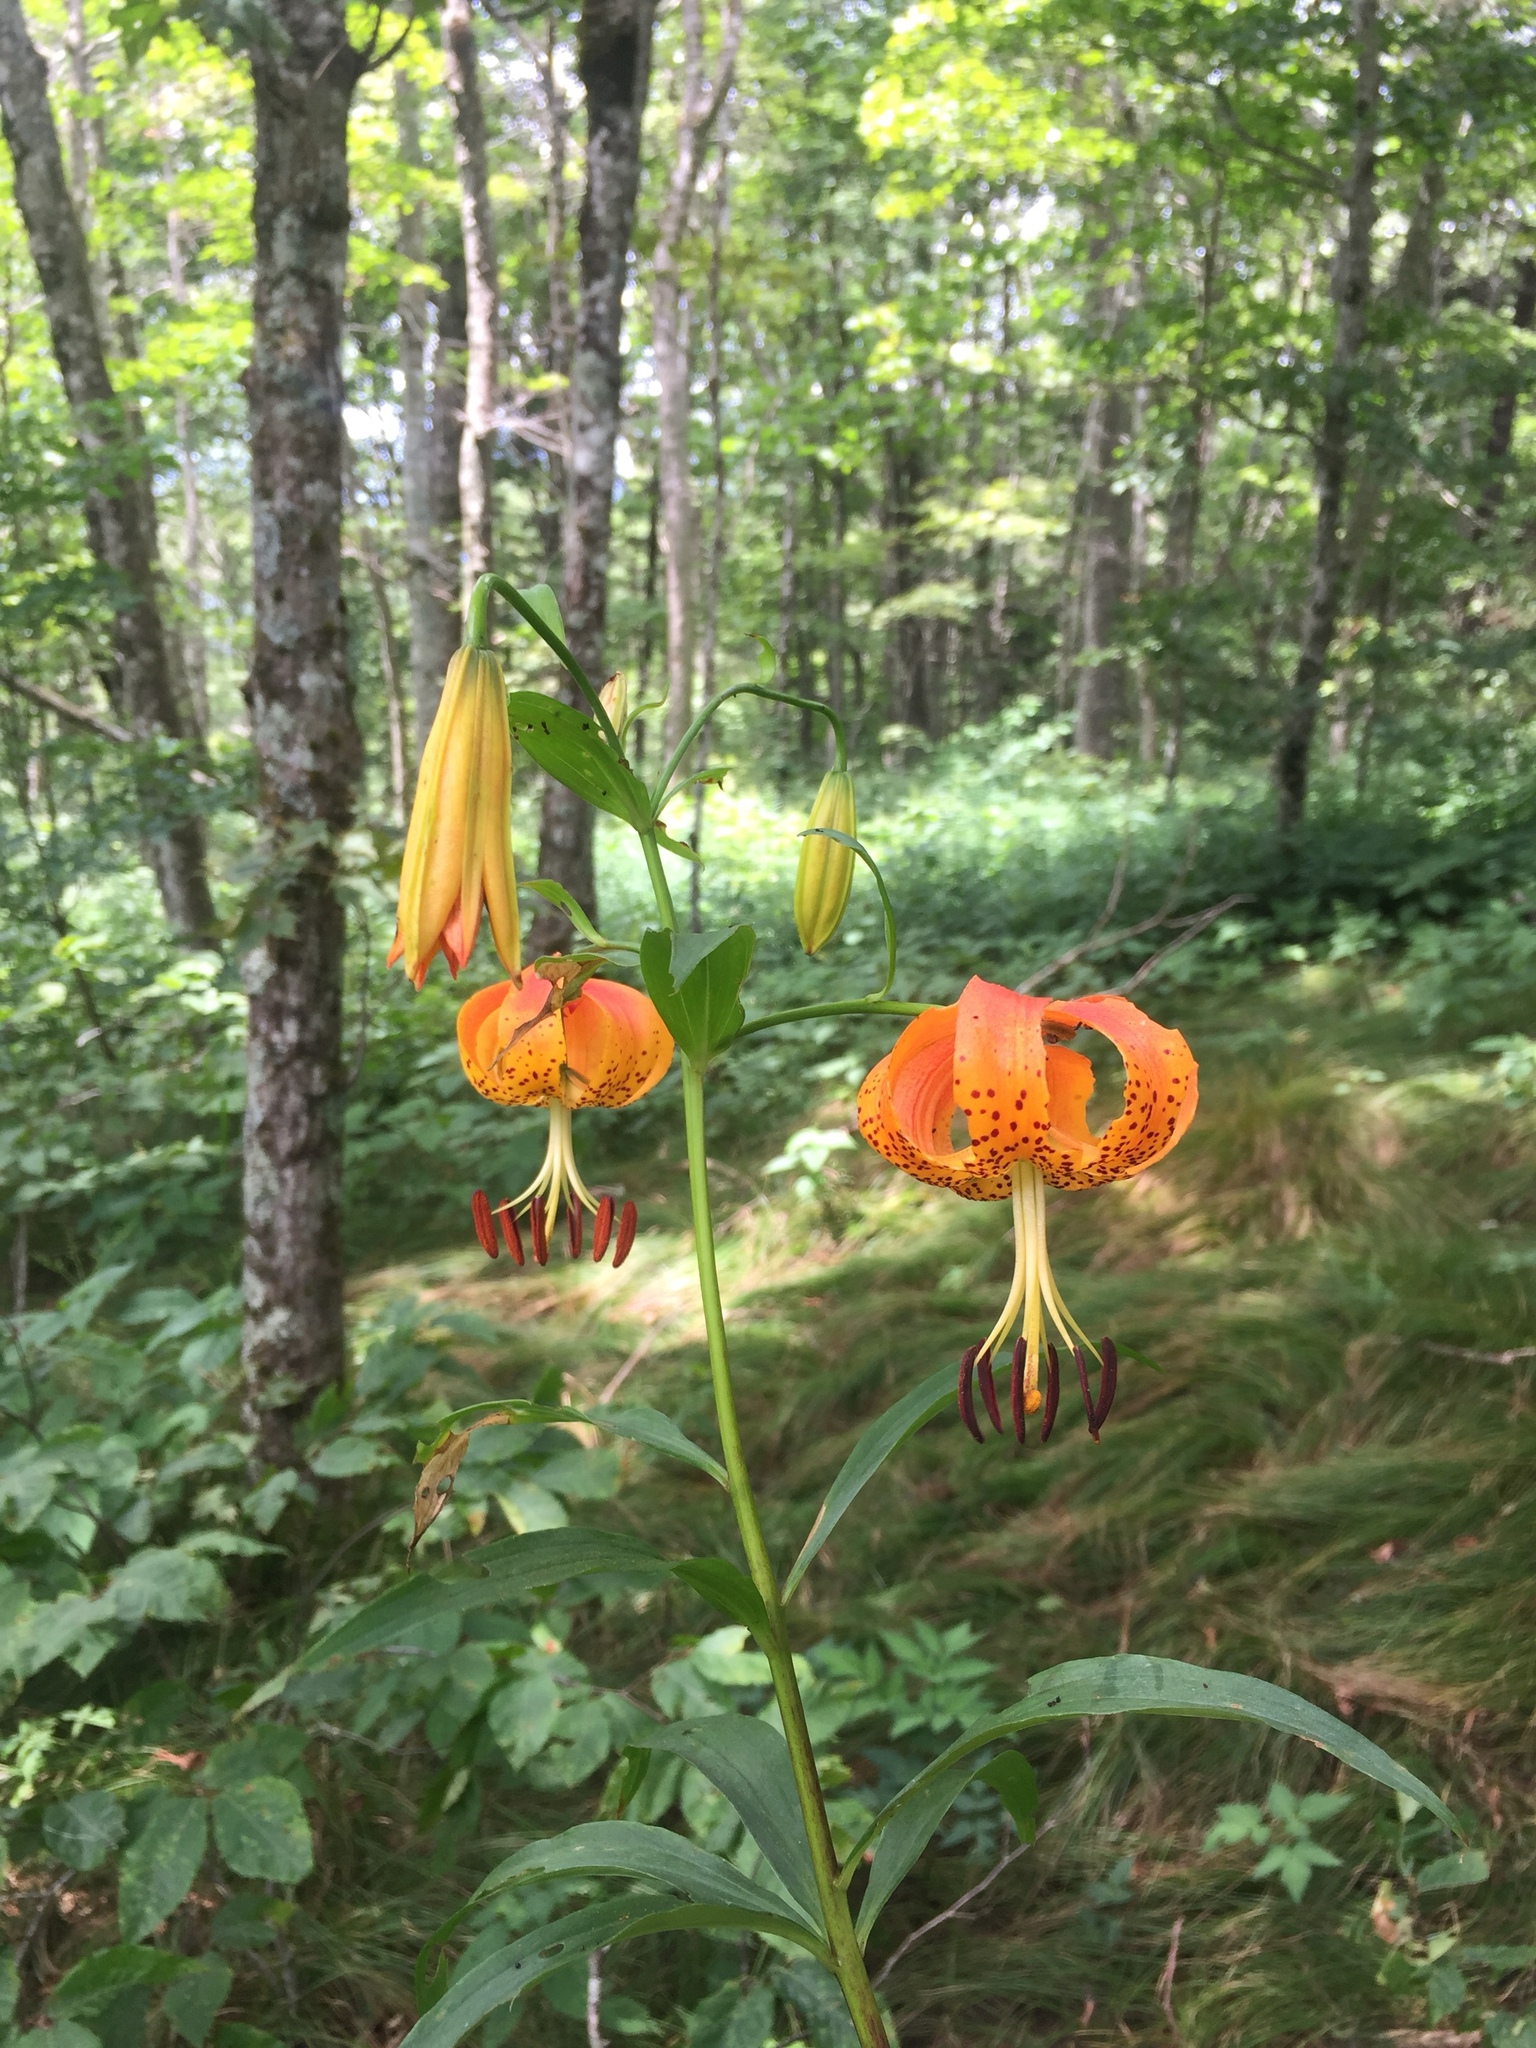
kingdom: Plantae
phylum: Tracheophyta
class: Liliopsida
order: Liliales
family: Liliaceae
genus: Lilium
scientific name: Lilium superbum
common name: American turk's-cap lily
